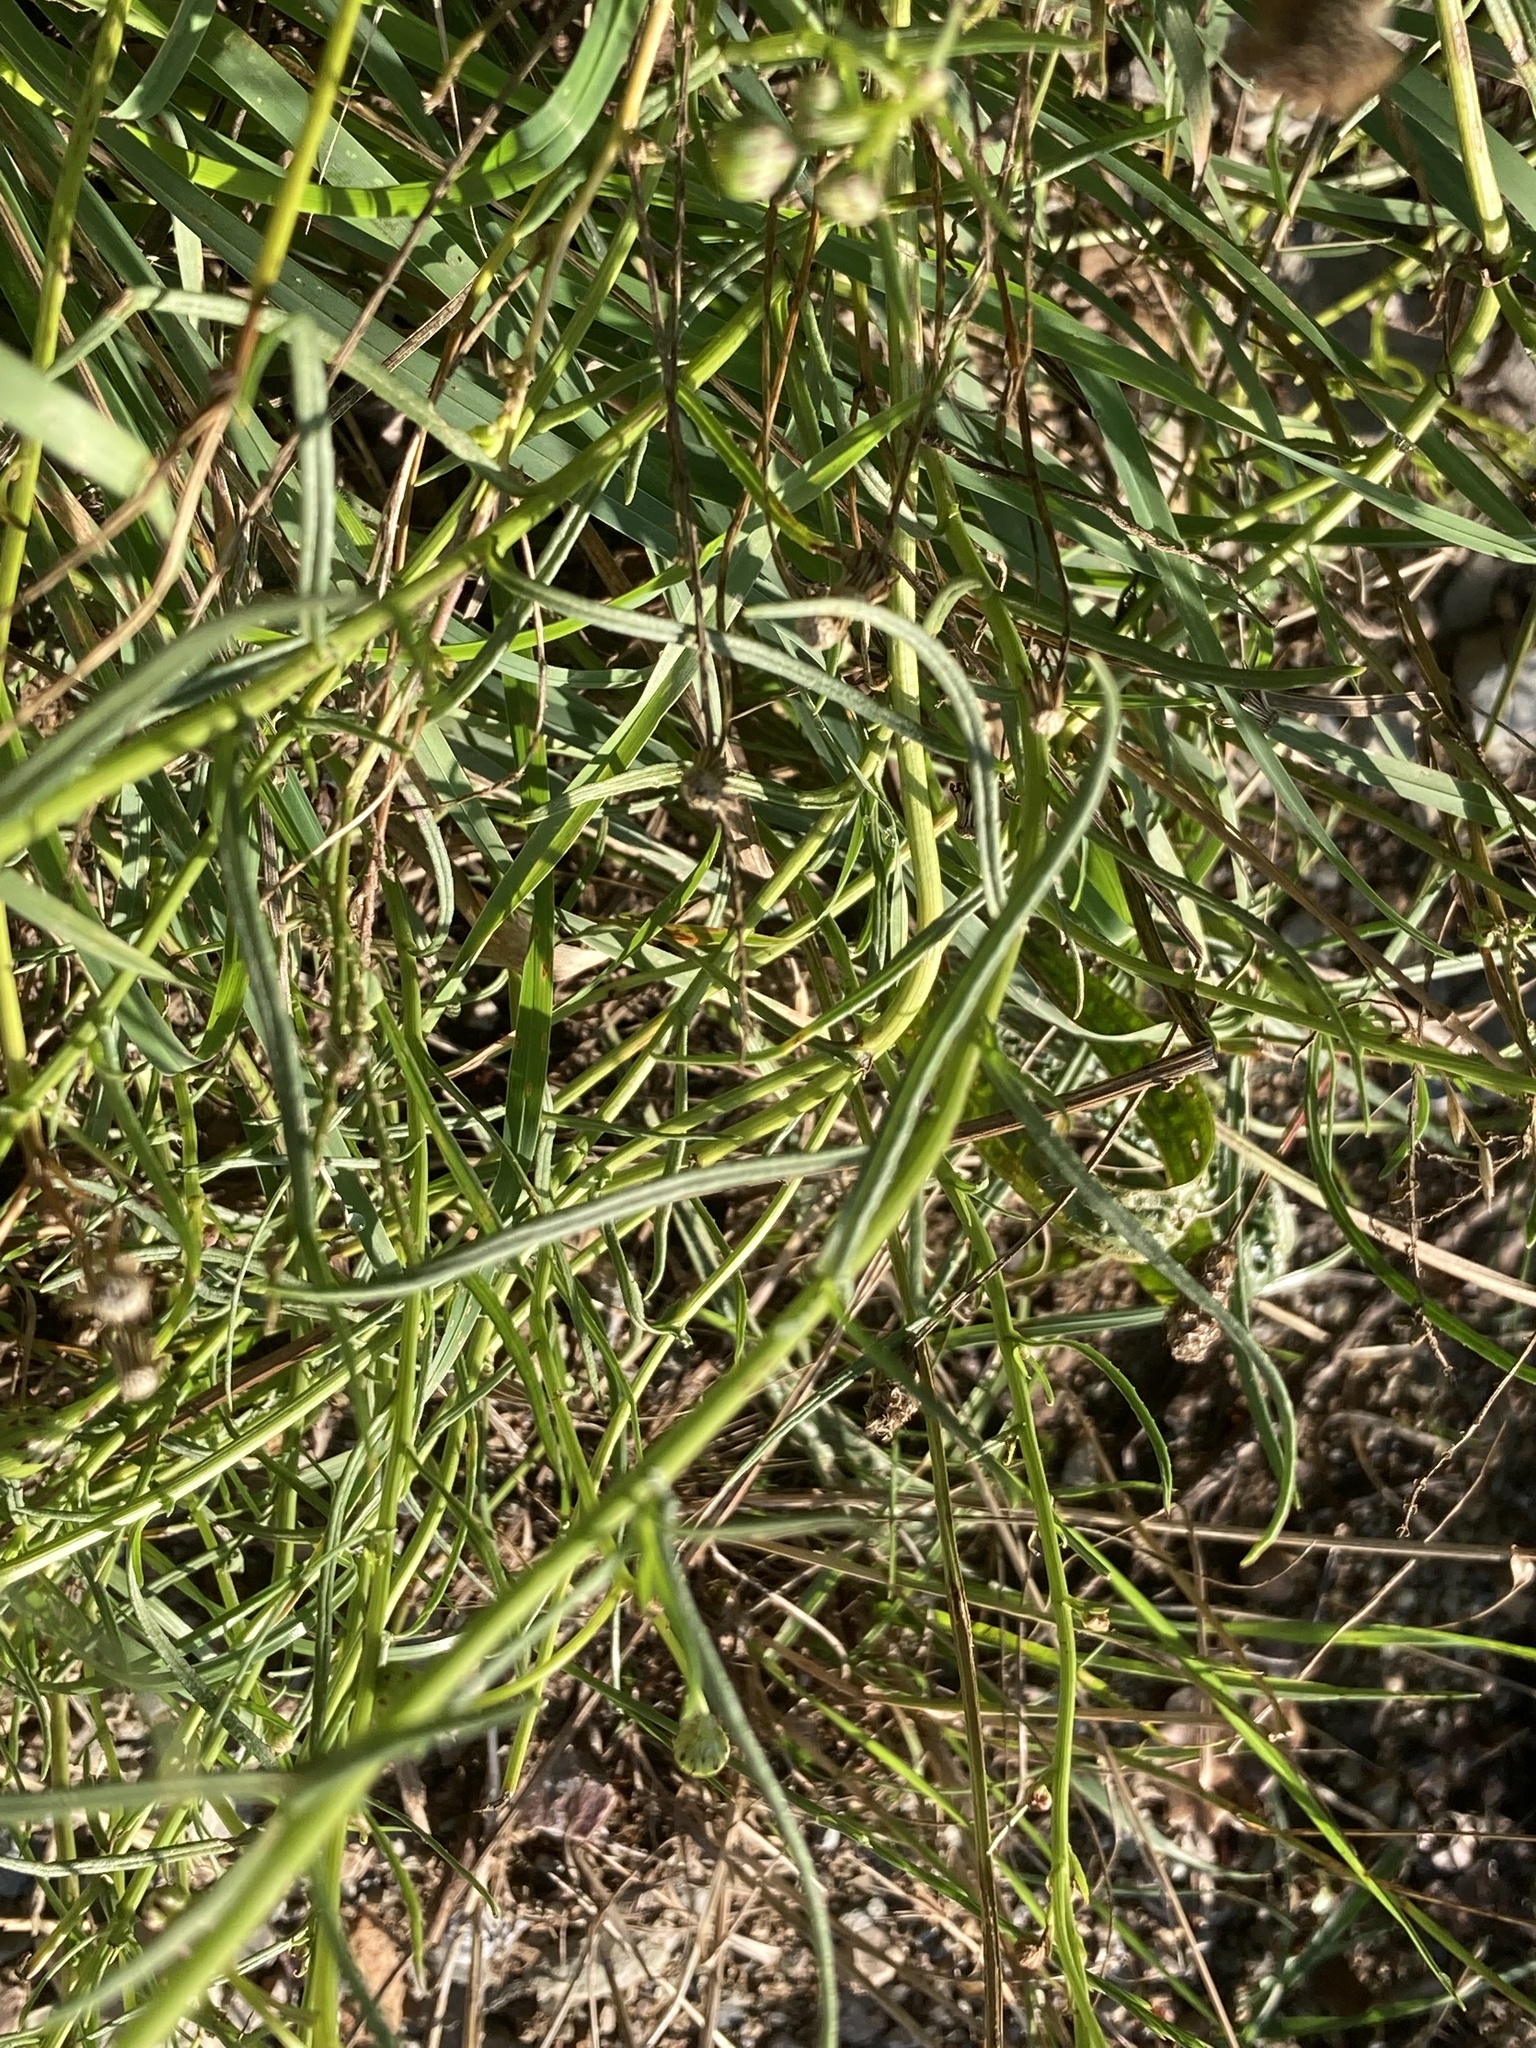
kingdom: Plantae
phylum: Tracheophyta
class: Magnoliopsida
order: Asterales
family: Asteraceae
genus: Senecio
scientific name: Senecio inaequidens
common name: Narrow-leaved ragwort
